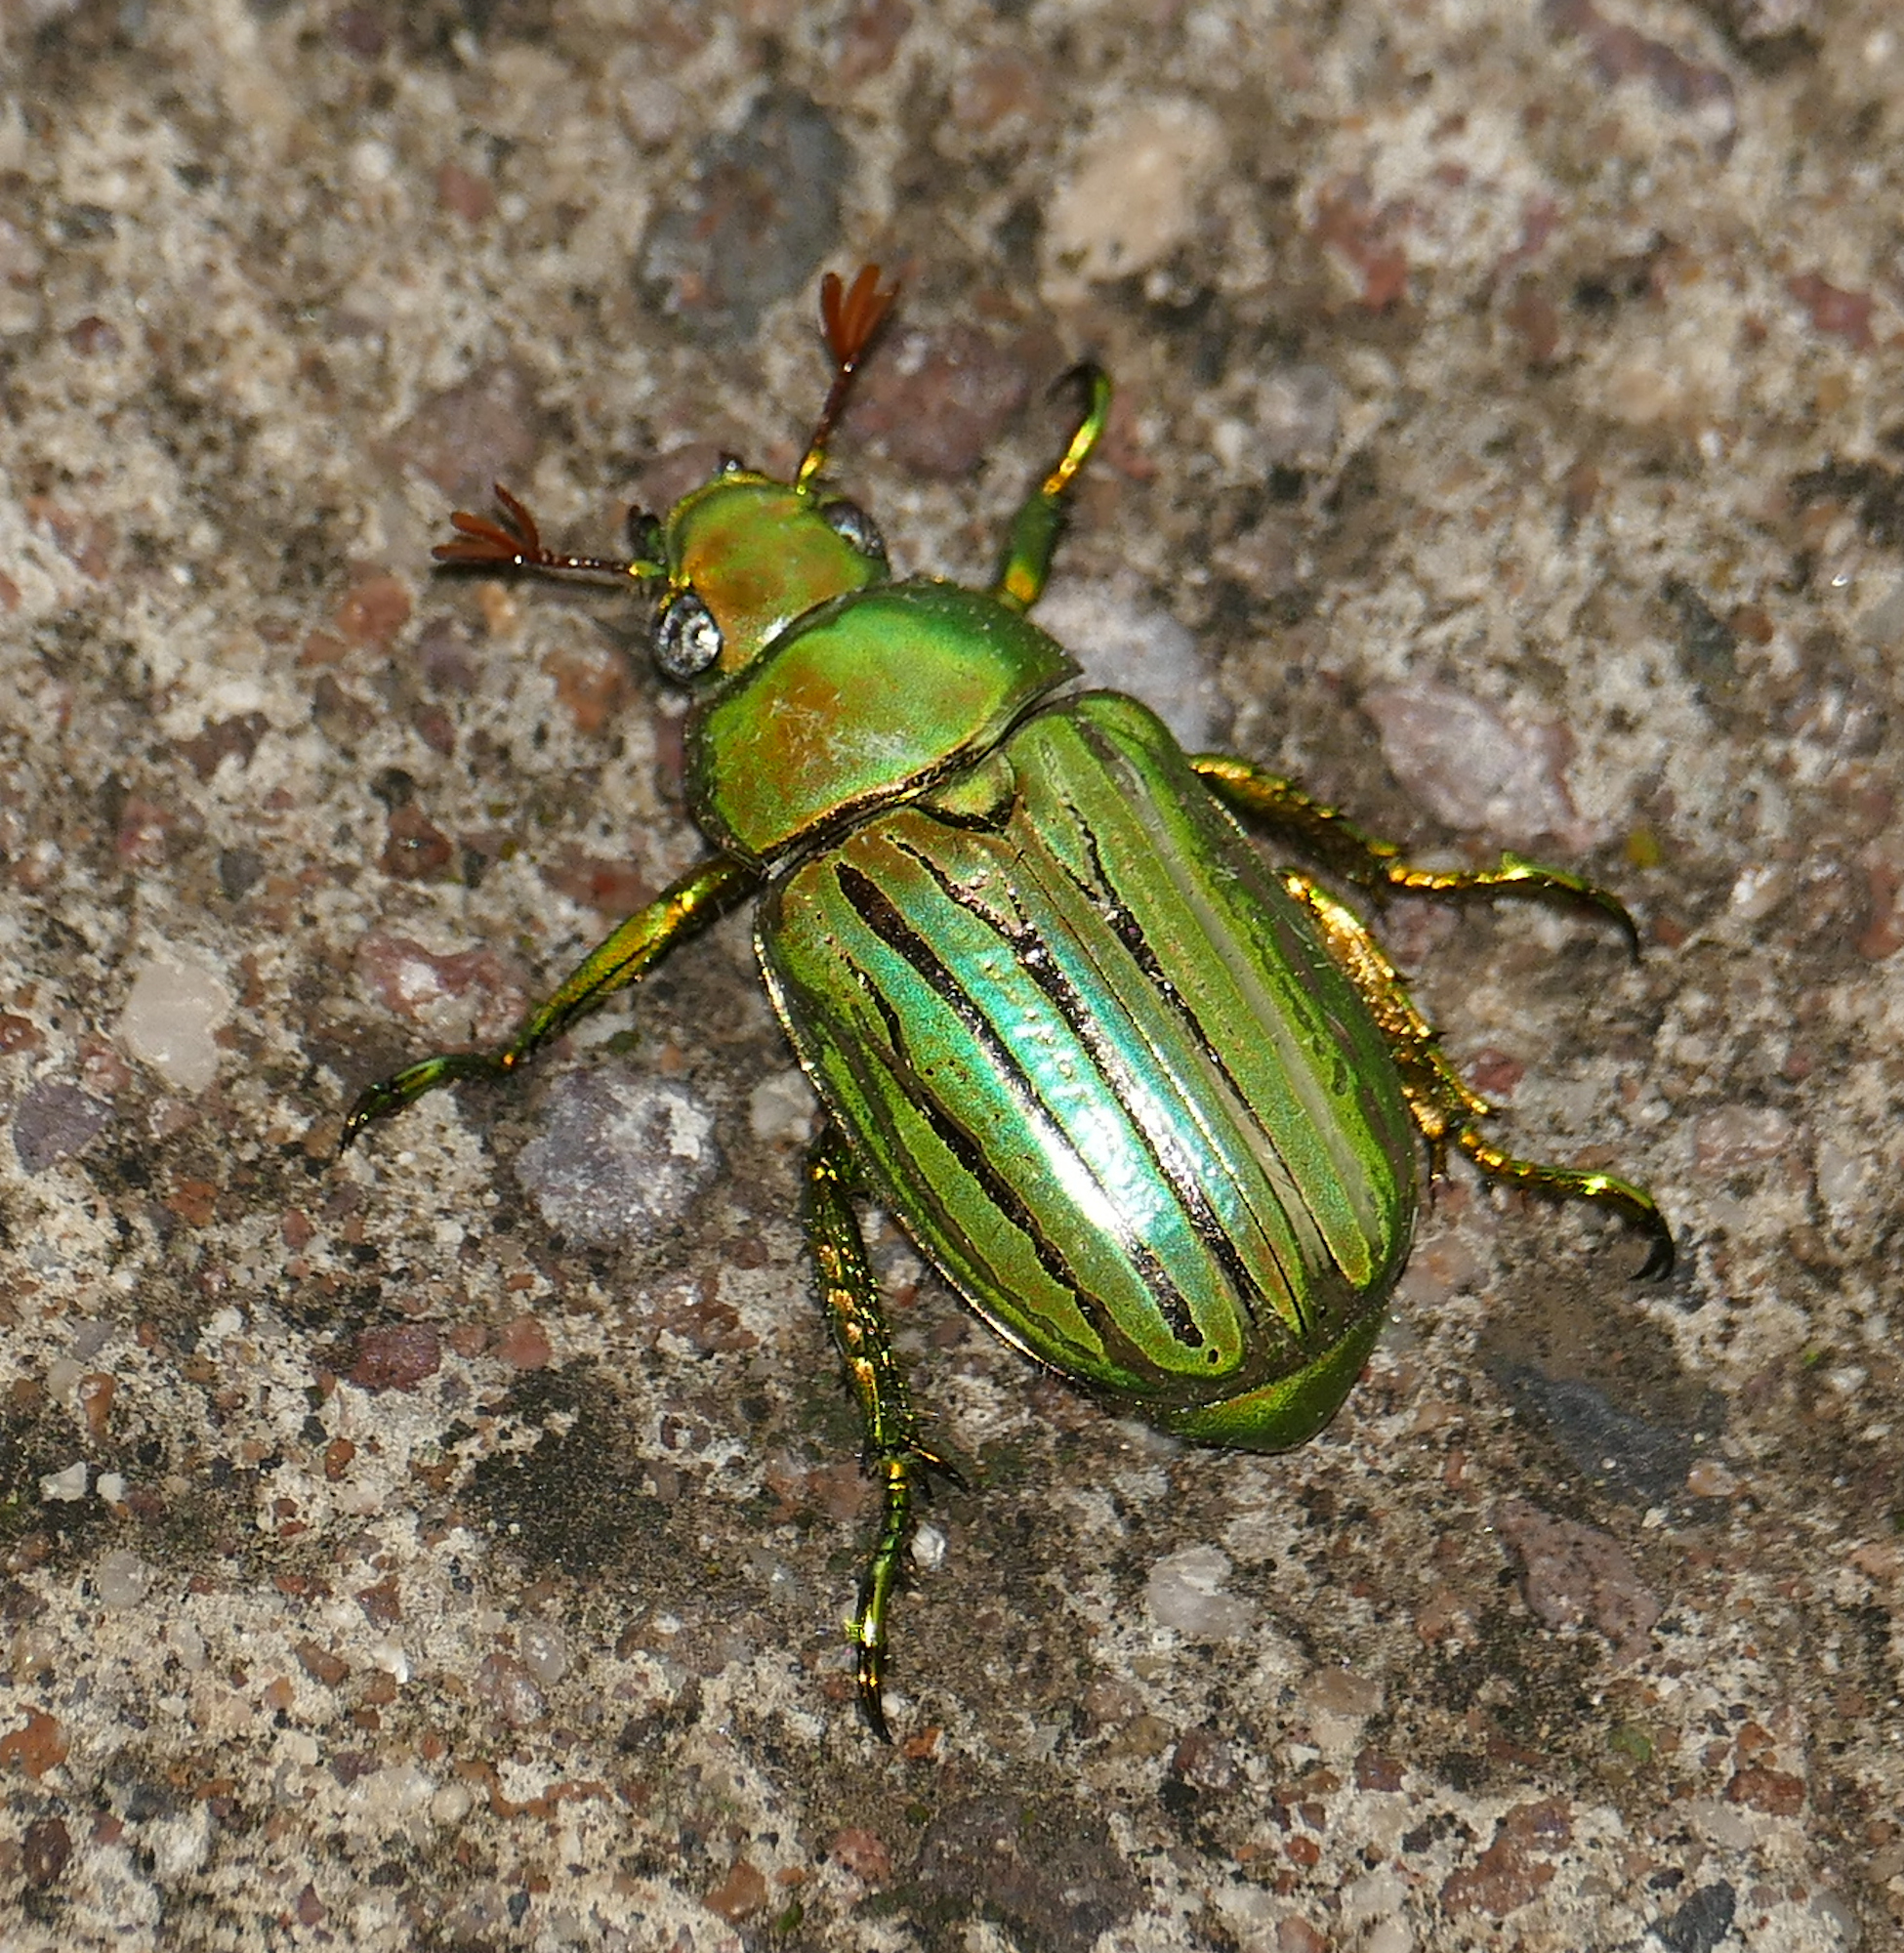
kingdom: Animalia
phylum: Arthropoda
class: Insecta
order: Coleoptera
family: Scarabaeidae
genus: Chrysina
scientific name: Chrysina gloriosa
